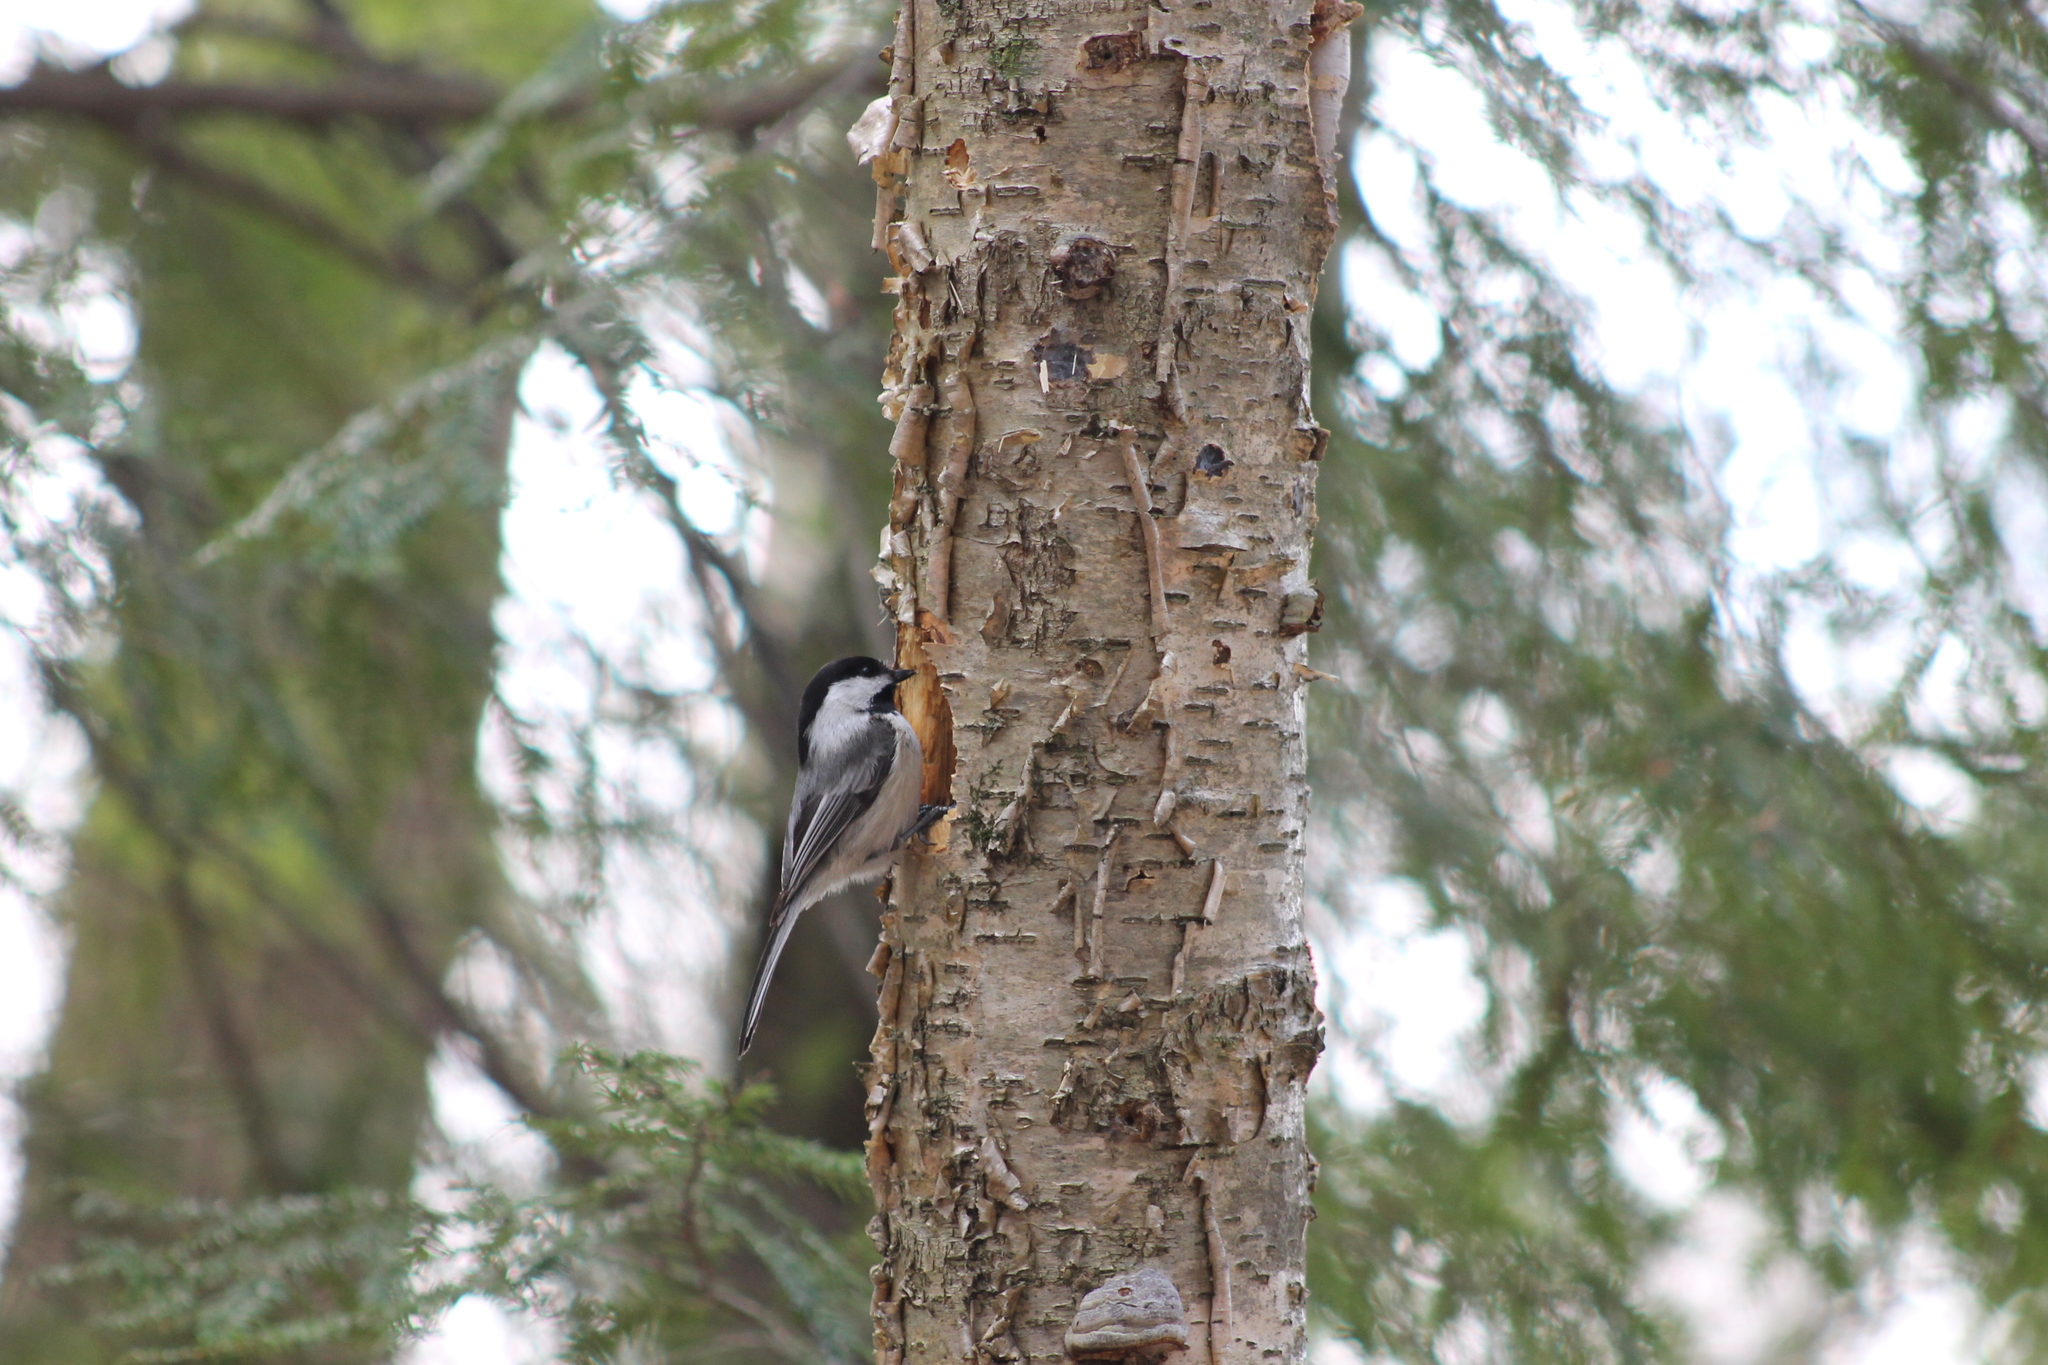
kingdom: Animalia
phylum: Chordata
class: Aves
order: Passeriformes
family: Paridae
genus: Poecile
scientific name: Poecile atricapillus
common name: Black-capped chickadee
